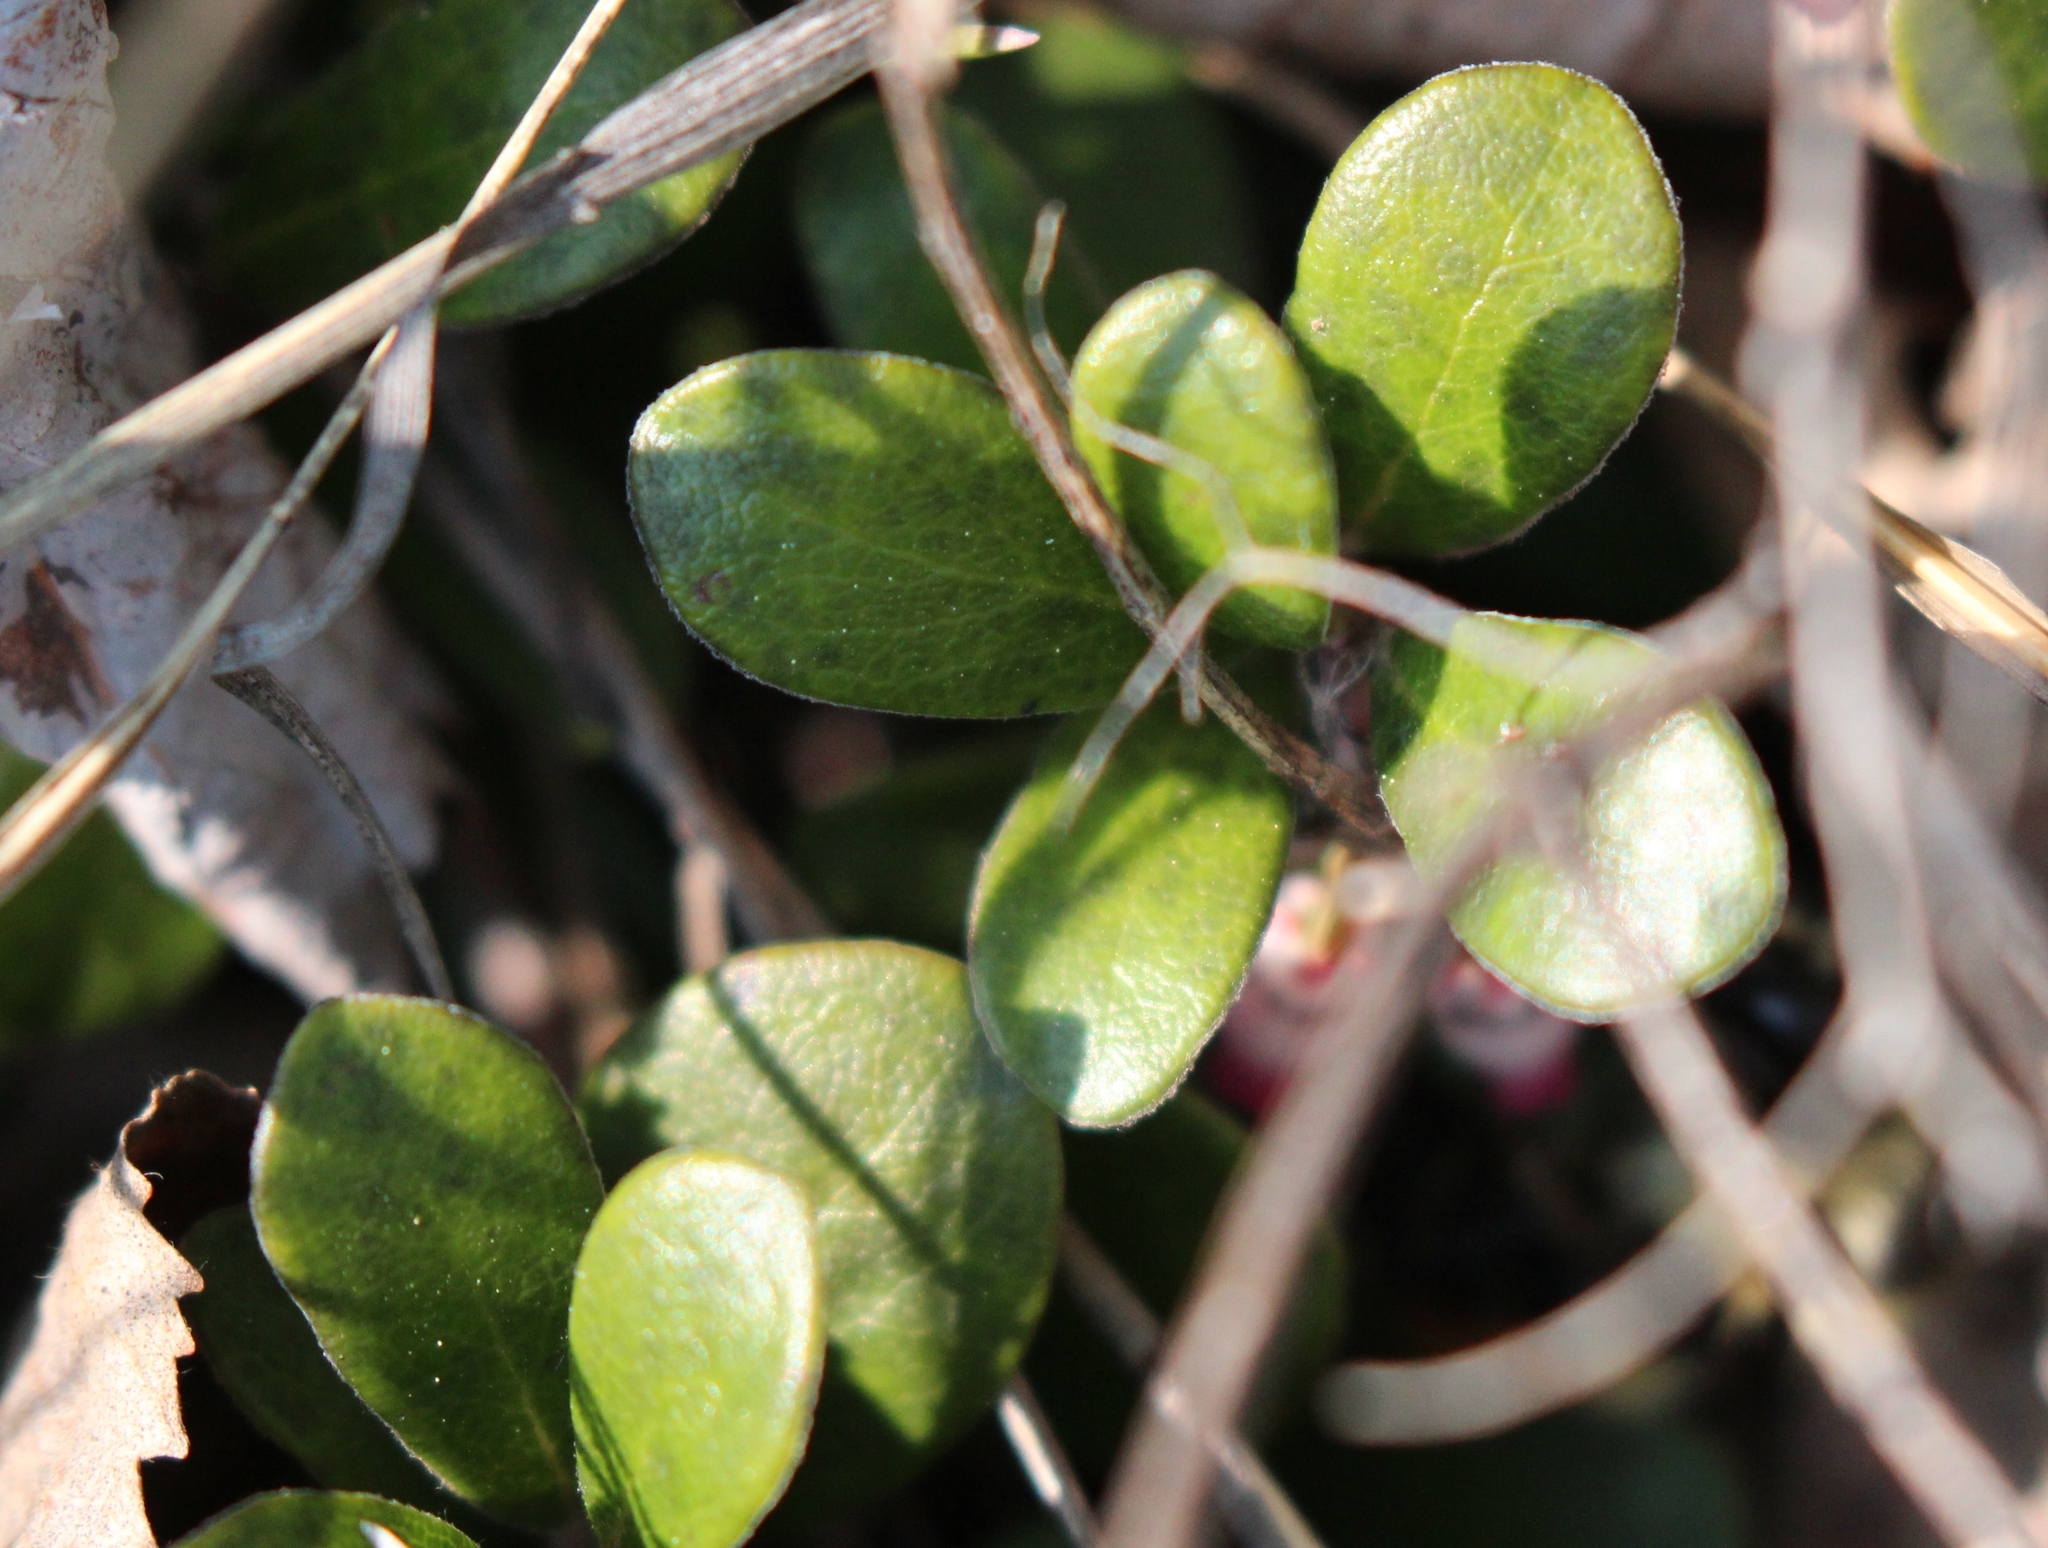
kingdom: Plantae
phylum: Tracheophyta
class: Magnoliopsida
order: Ericales
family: Ericaceae
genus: Arctostaphylos
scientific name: Arctostaphylos uva-ursi
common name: Bearberry
